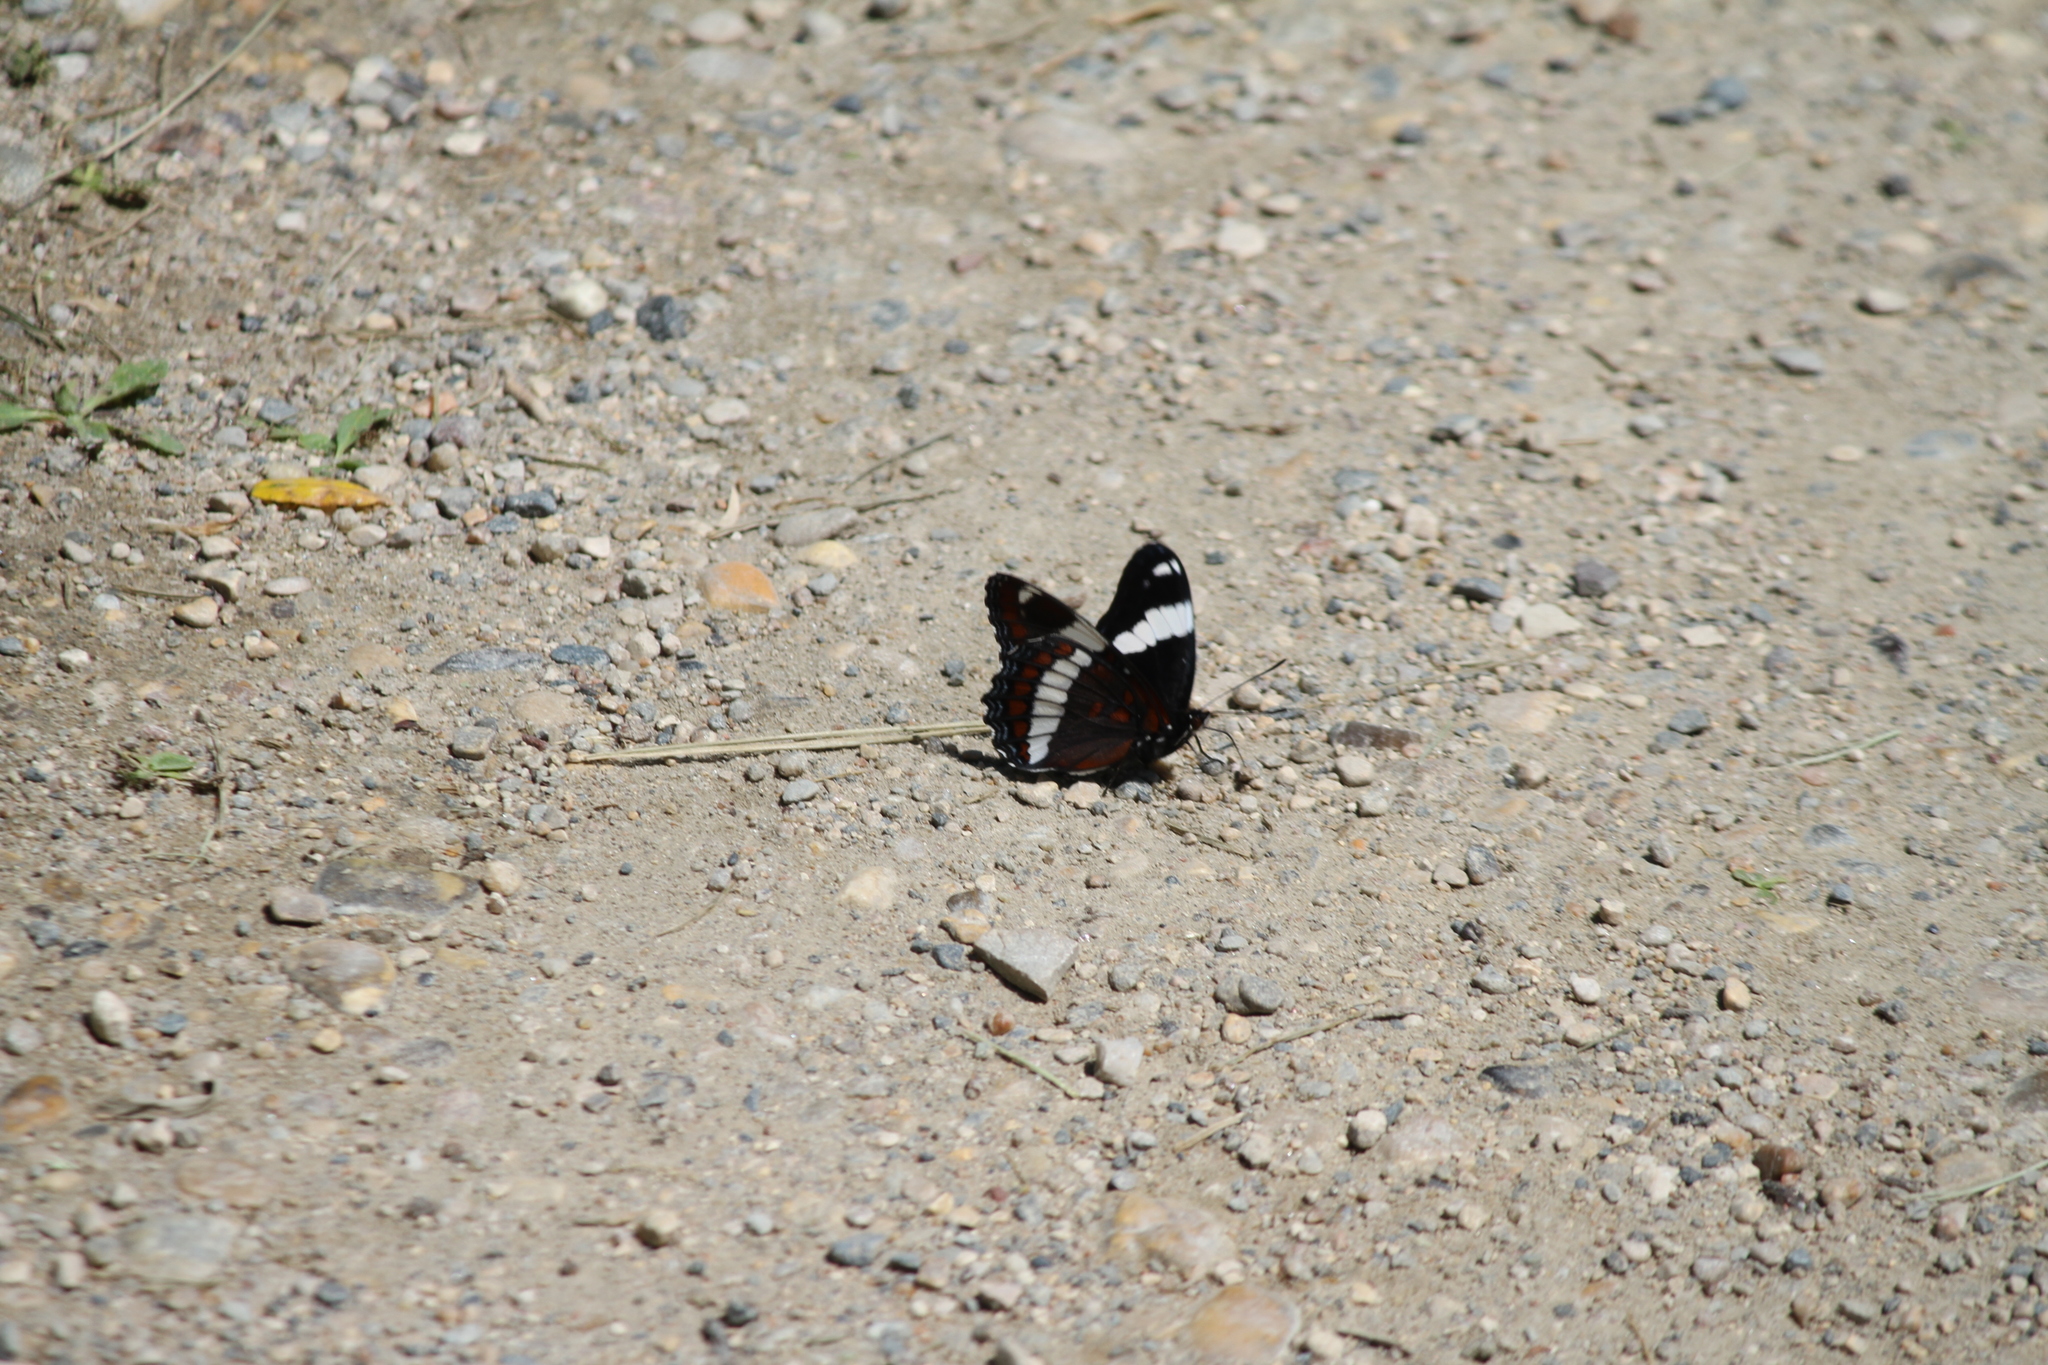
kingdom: Animalia
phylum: Arthropoda
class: Insecta
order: Lepidoptera
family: Nymphalidae
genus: Limenitis
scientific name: Limenitis arthemis
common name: Red-spotted admiral
